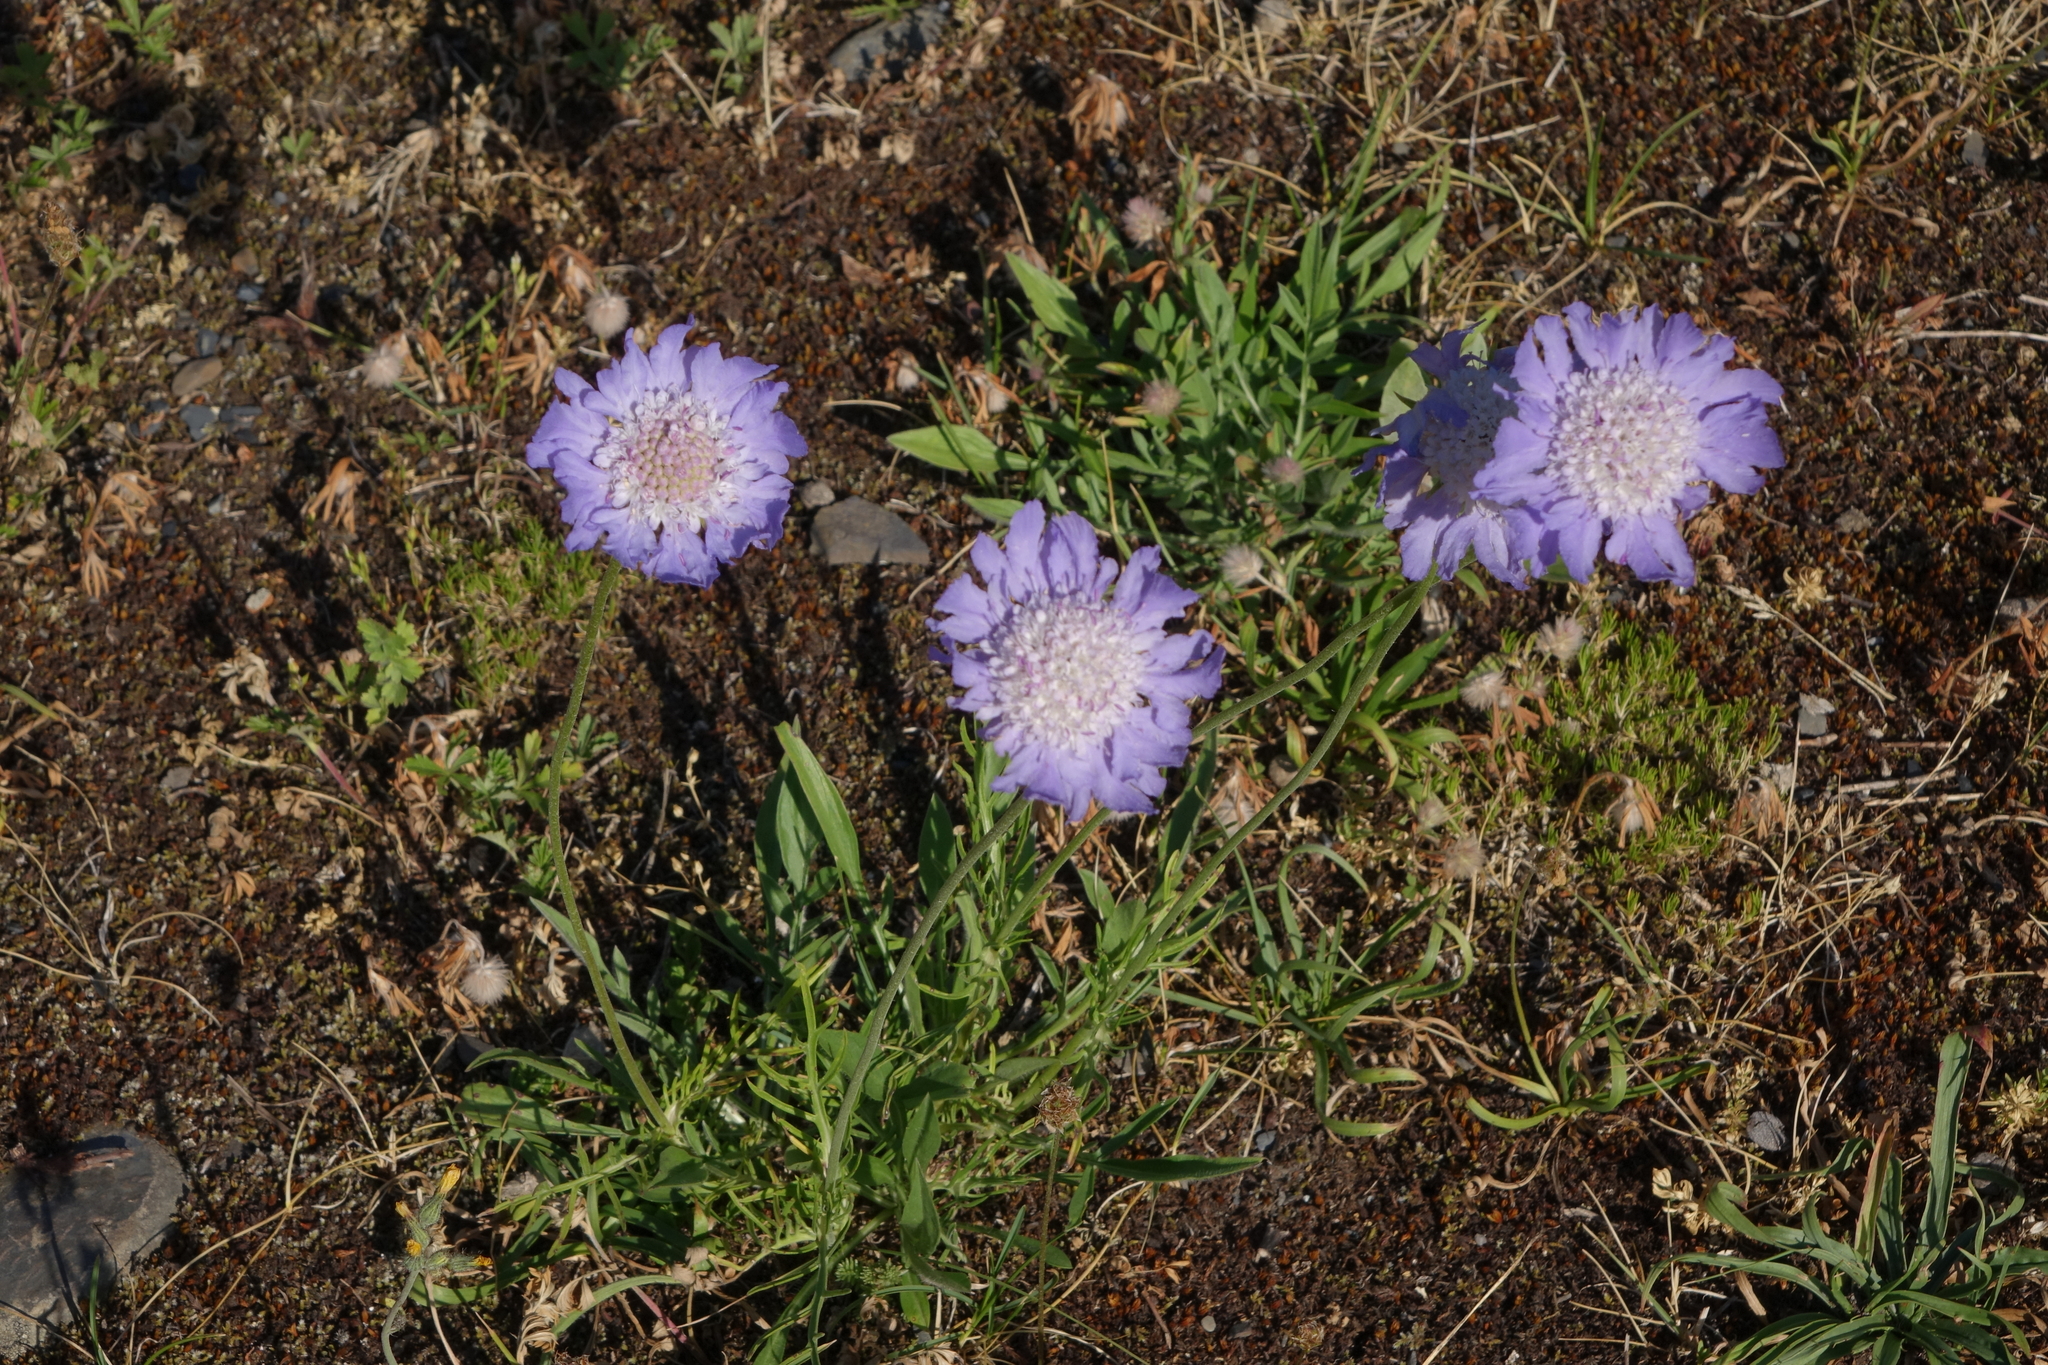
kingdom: Plantae
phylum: Tracheophyta
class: Magnoliopsida
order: Dipsacales
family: Caprifoliaceae
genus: Lomelosia
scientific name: Lomelosia caucasica
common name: Pincushion-flower
